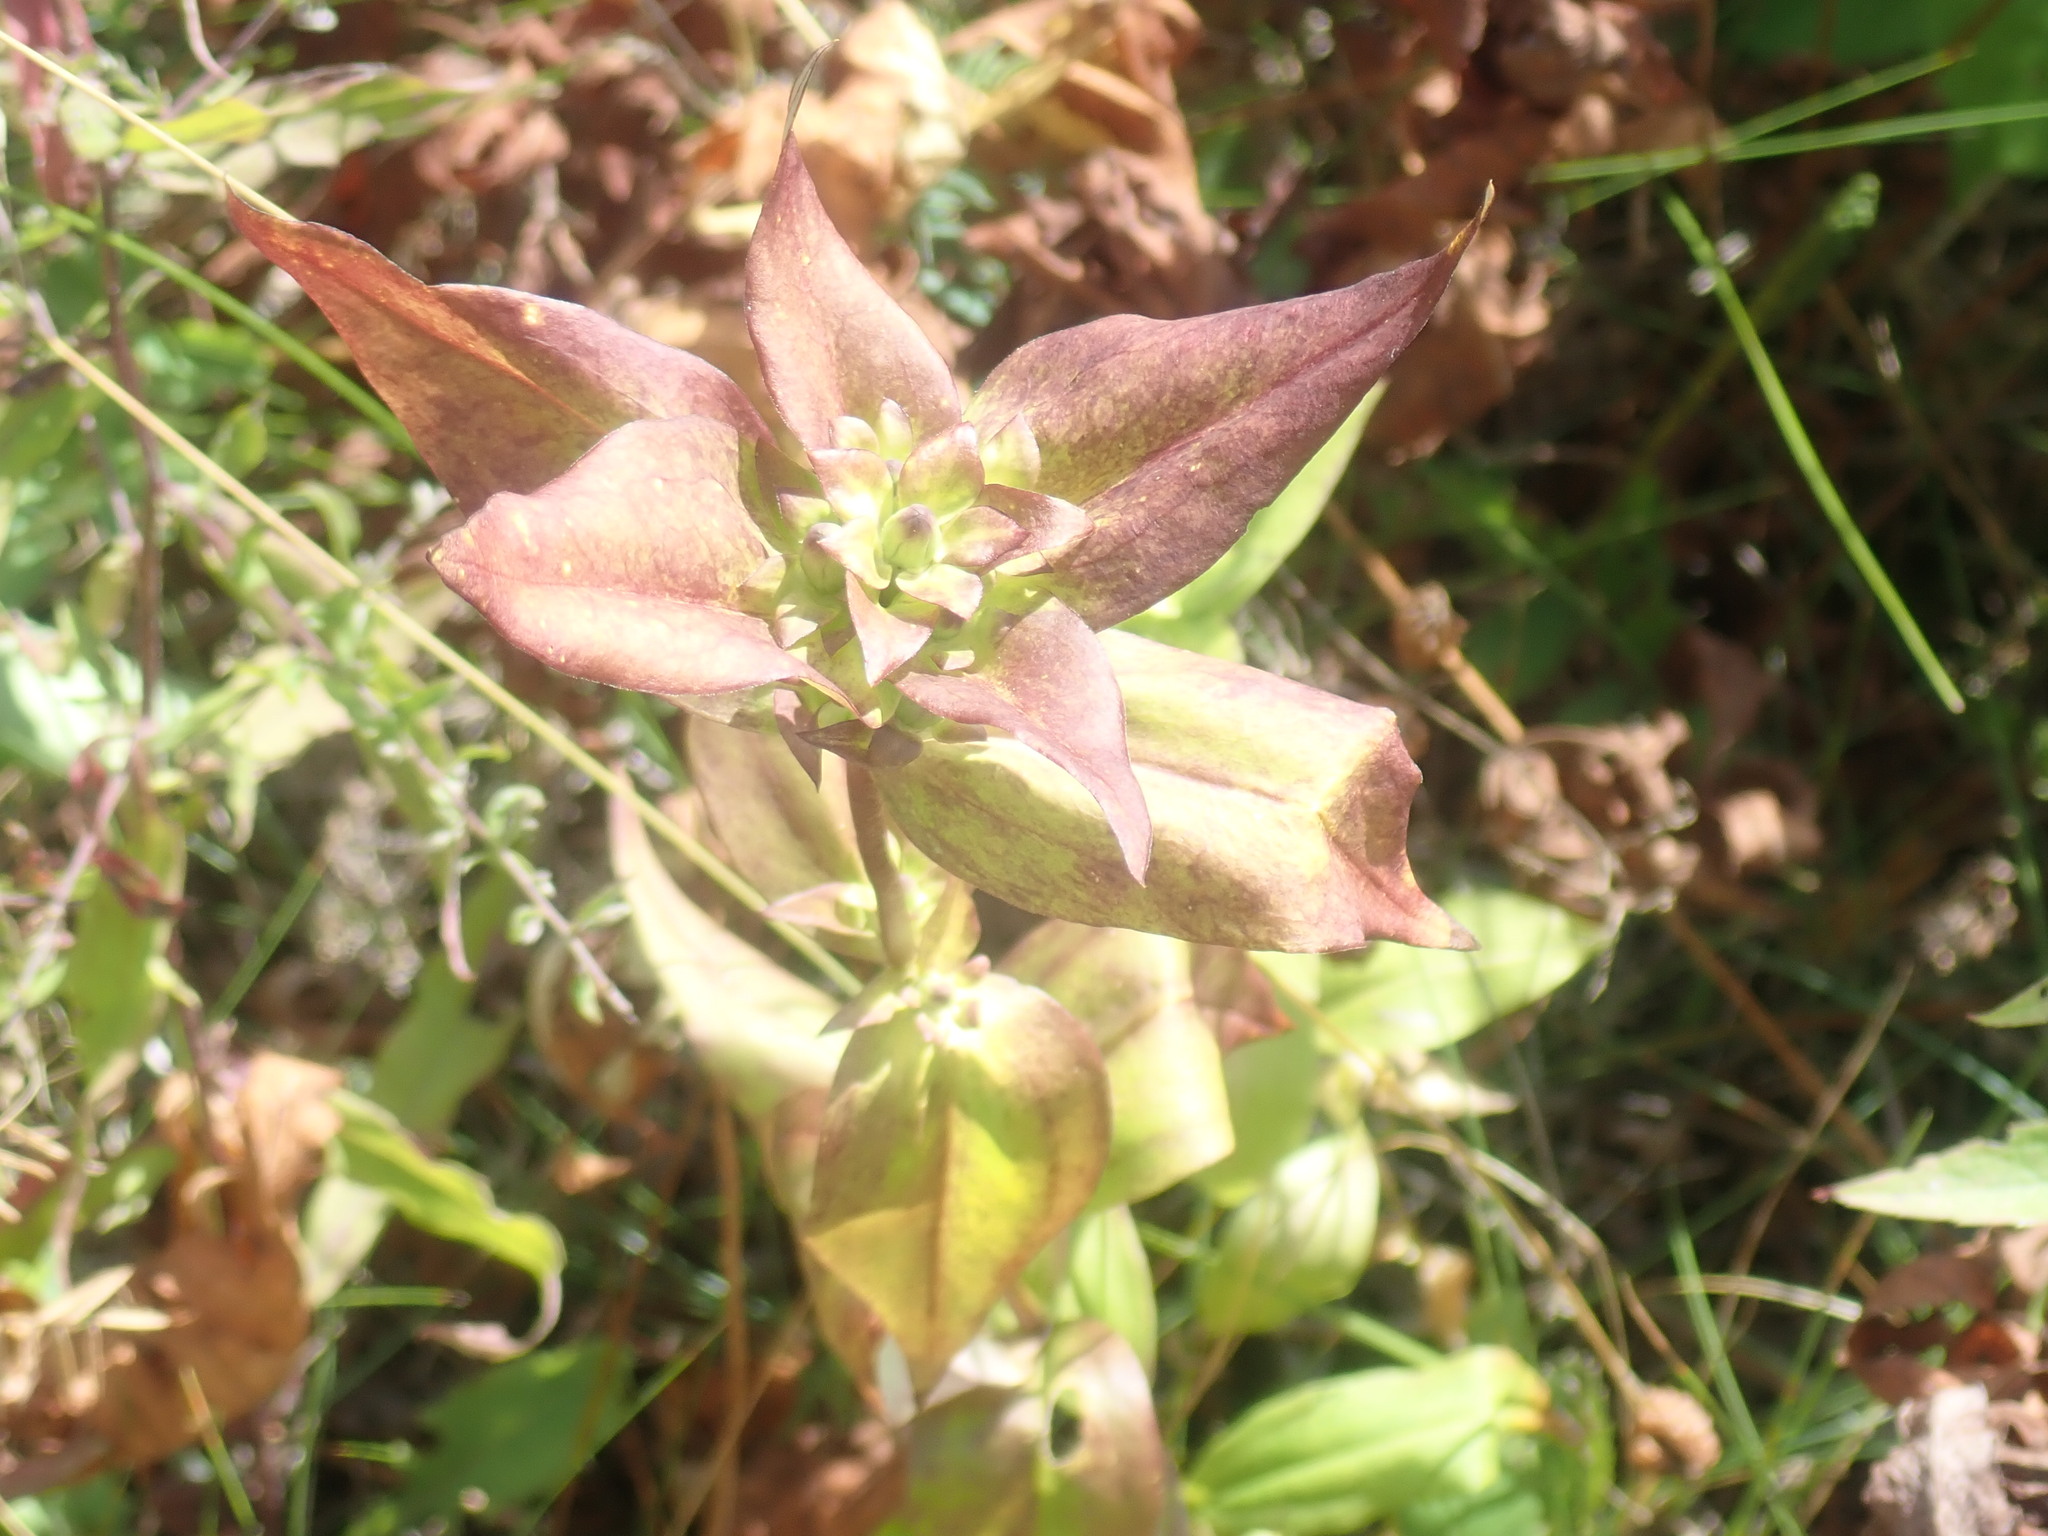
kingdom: Plantae
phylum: Tracheophyta
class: Magnoliopsida
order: Gentianales
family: Gentianaceae
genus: Gentiana
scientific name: Gentiana clausa
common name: Blind gentian
